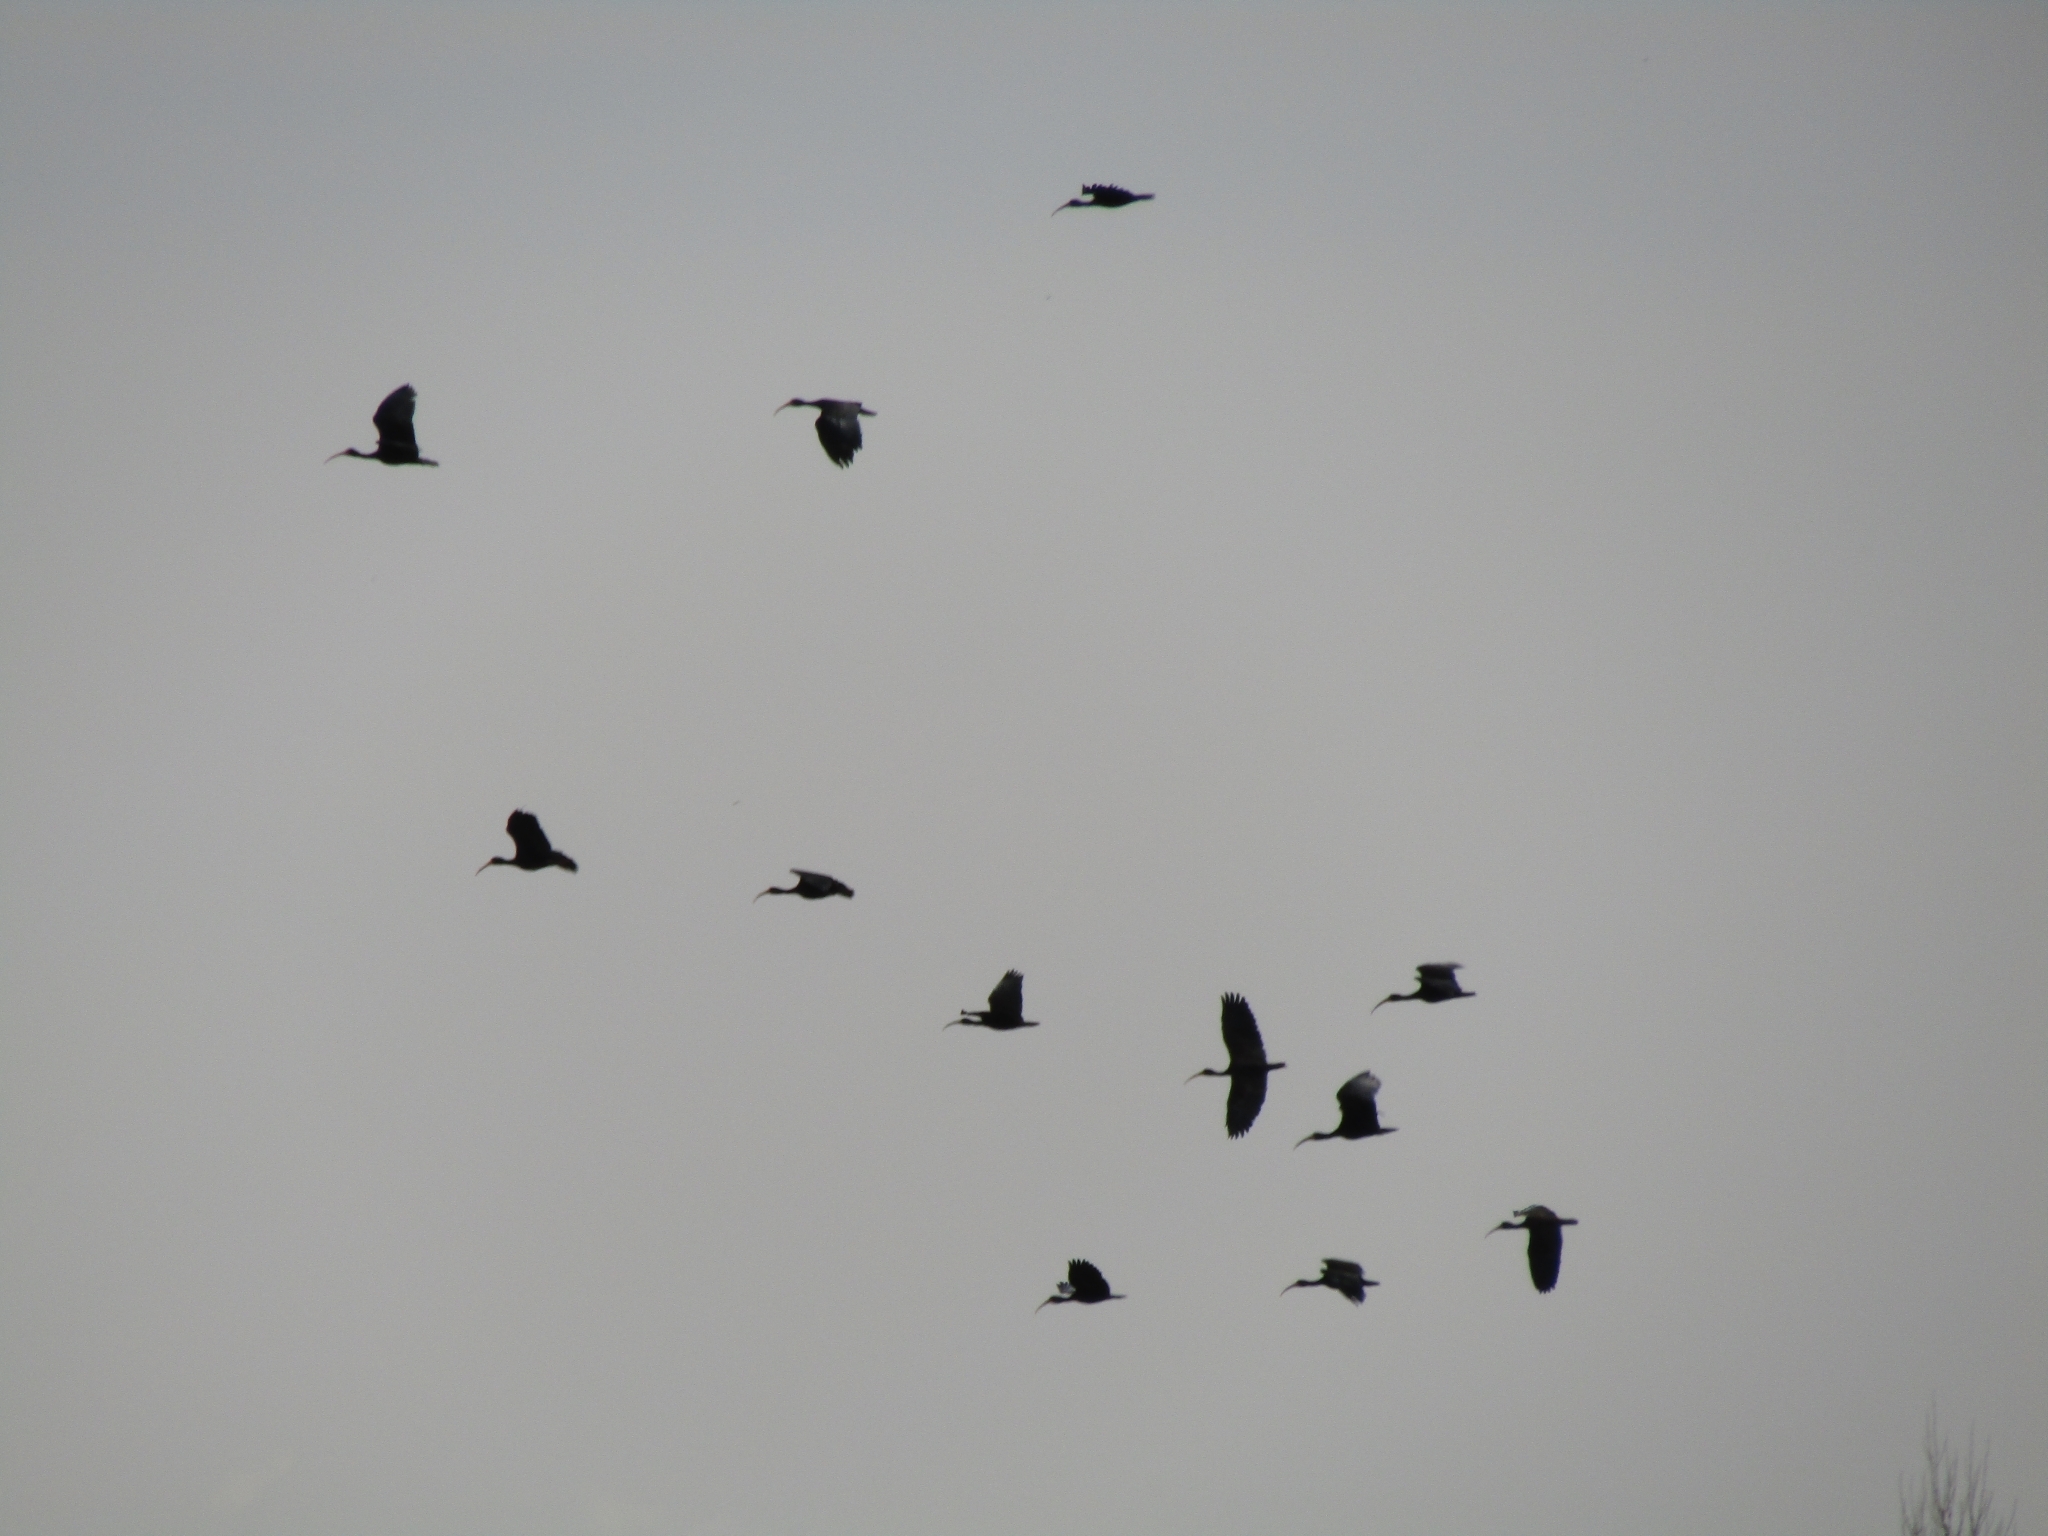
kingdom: Animalia
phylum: Chordata
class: Aves
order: Pelecaniformes
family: Threskiornithidae
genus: Phimosus
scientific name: Phimosus infuscatus
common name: Bare-faced ibis
